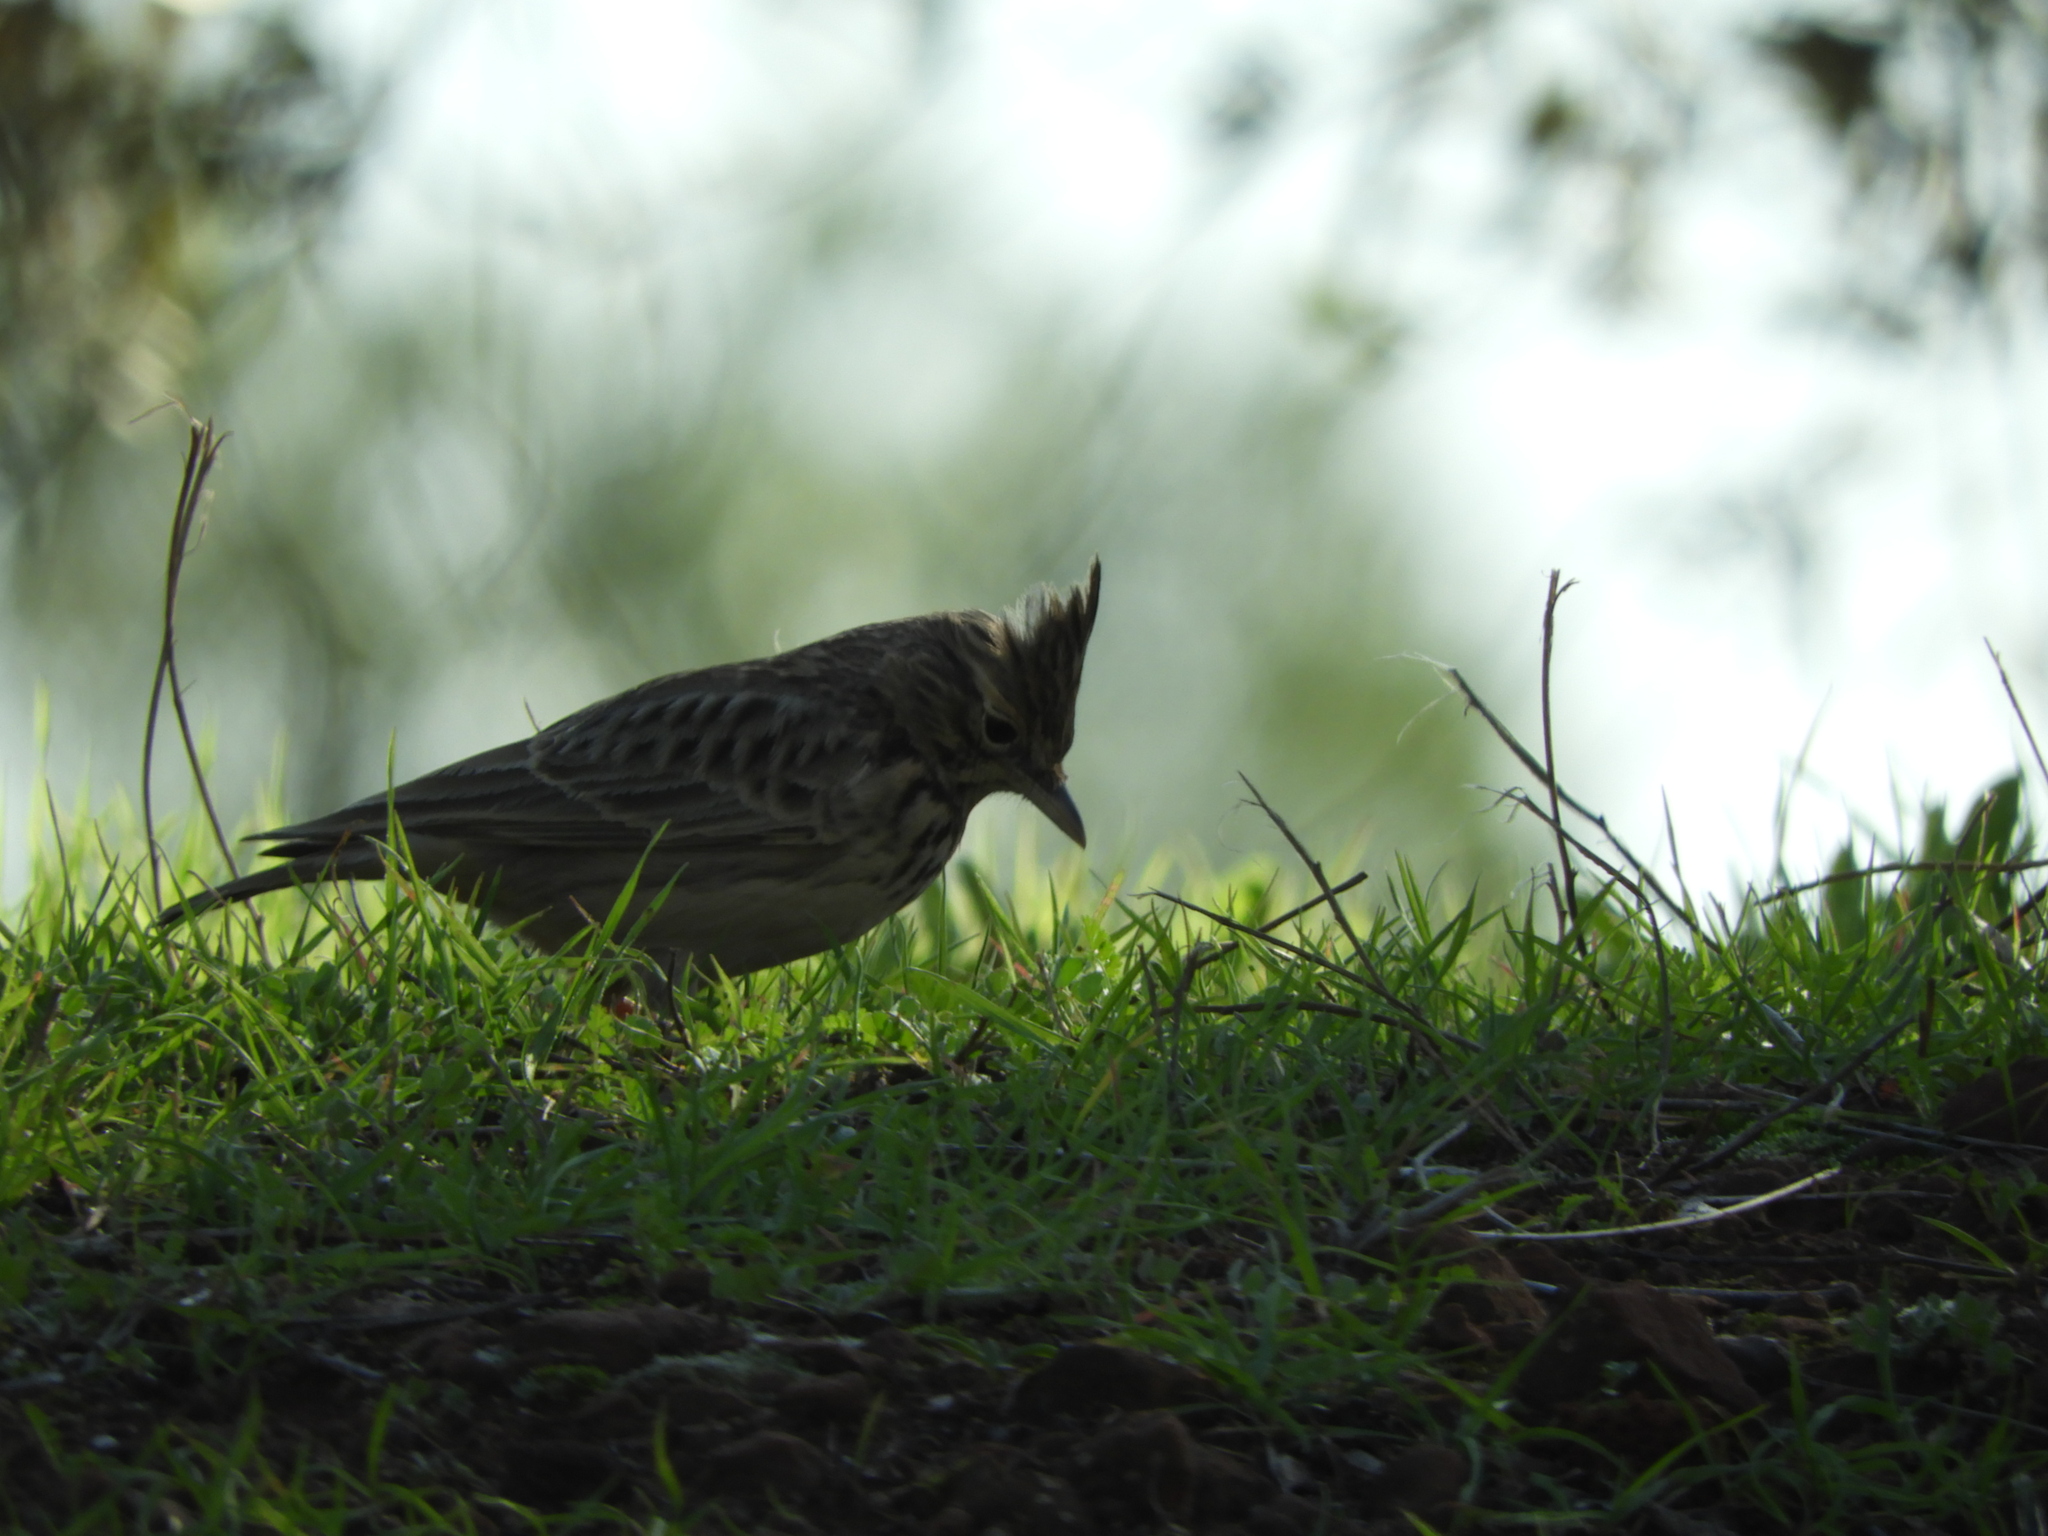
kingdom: Animalia
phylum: Chordata
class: Aves
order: Passeriformes
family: Alaudidae
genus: Galerida
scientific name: Galerida theklae
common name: Thekla lark
